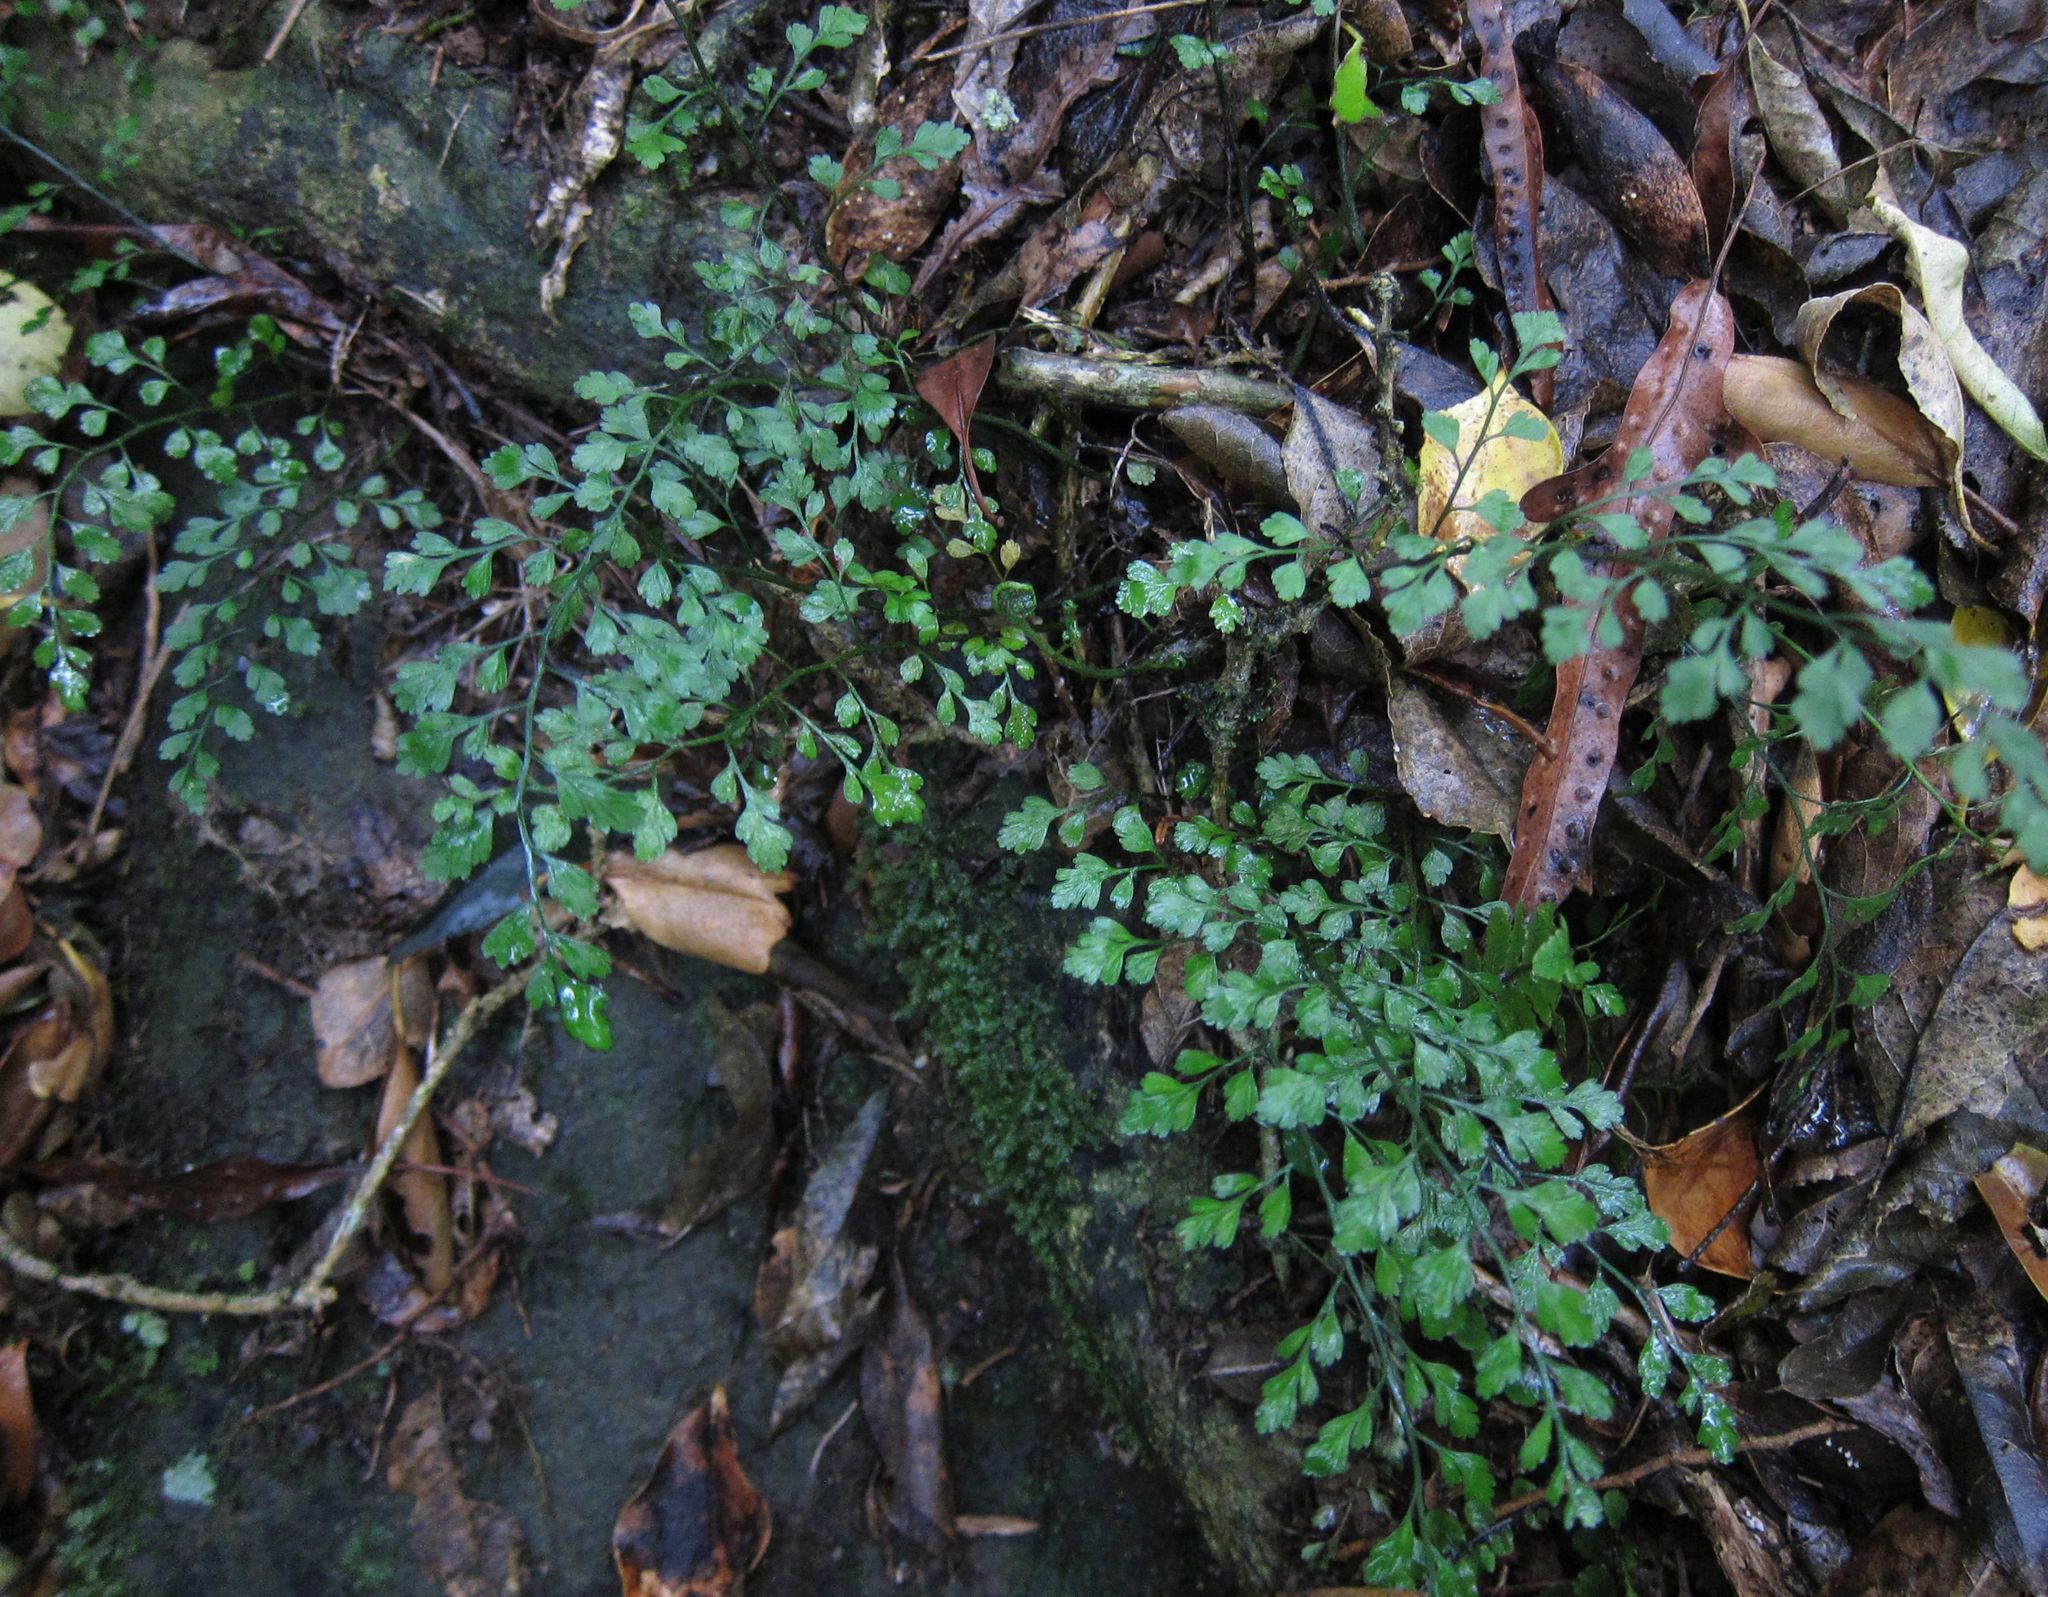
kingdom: Plantae
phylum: Tracheophyta
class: Polypodiopsida
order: Polypodiales
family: Aspleniaceae
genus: Asplenium
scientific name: Asplenium hookerianum
